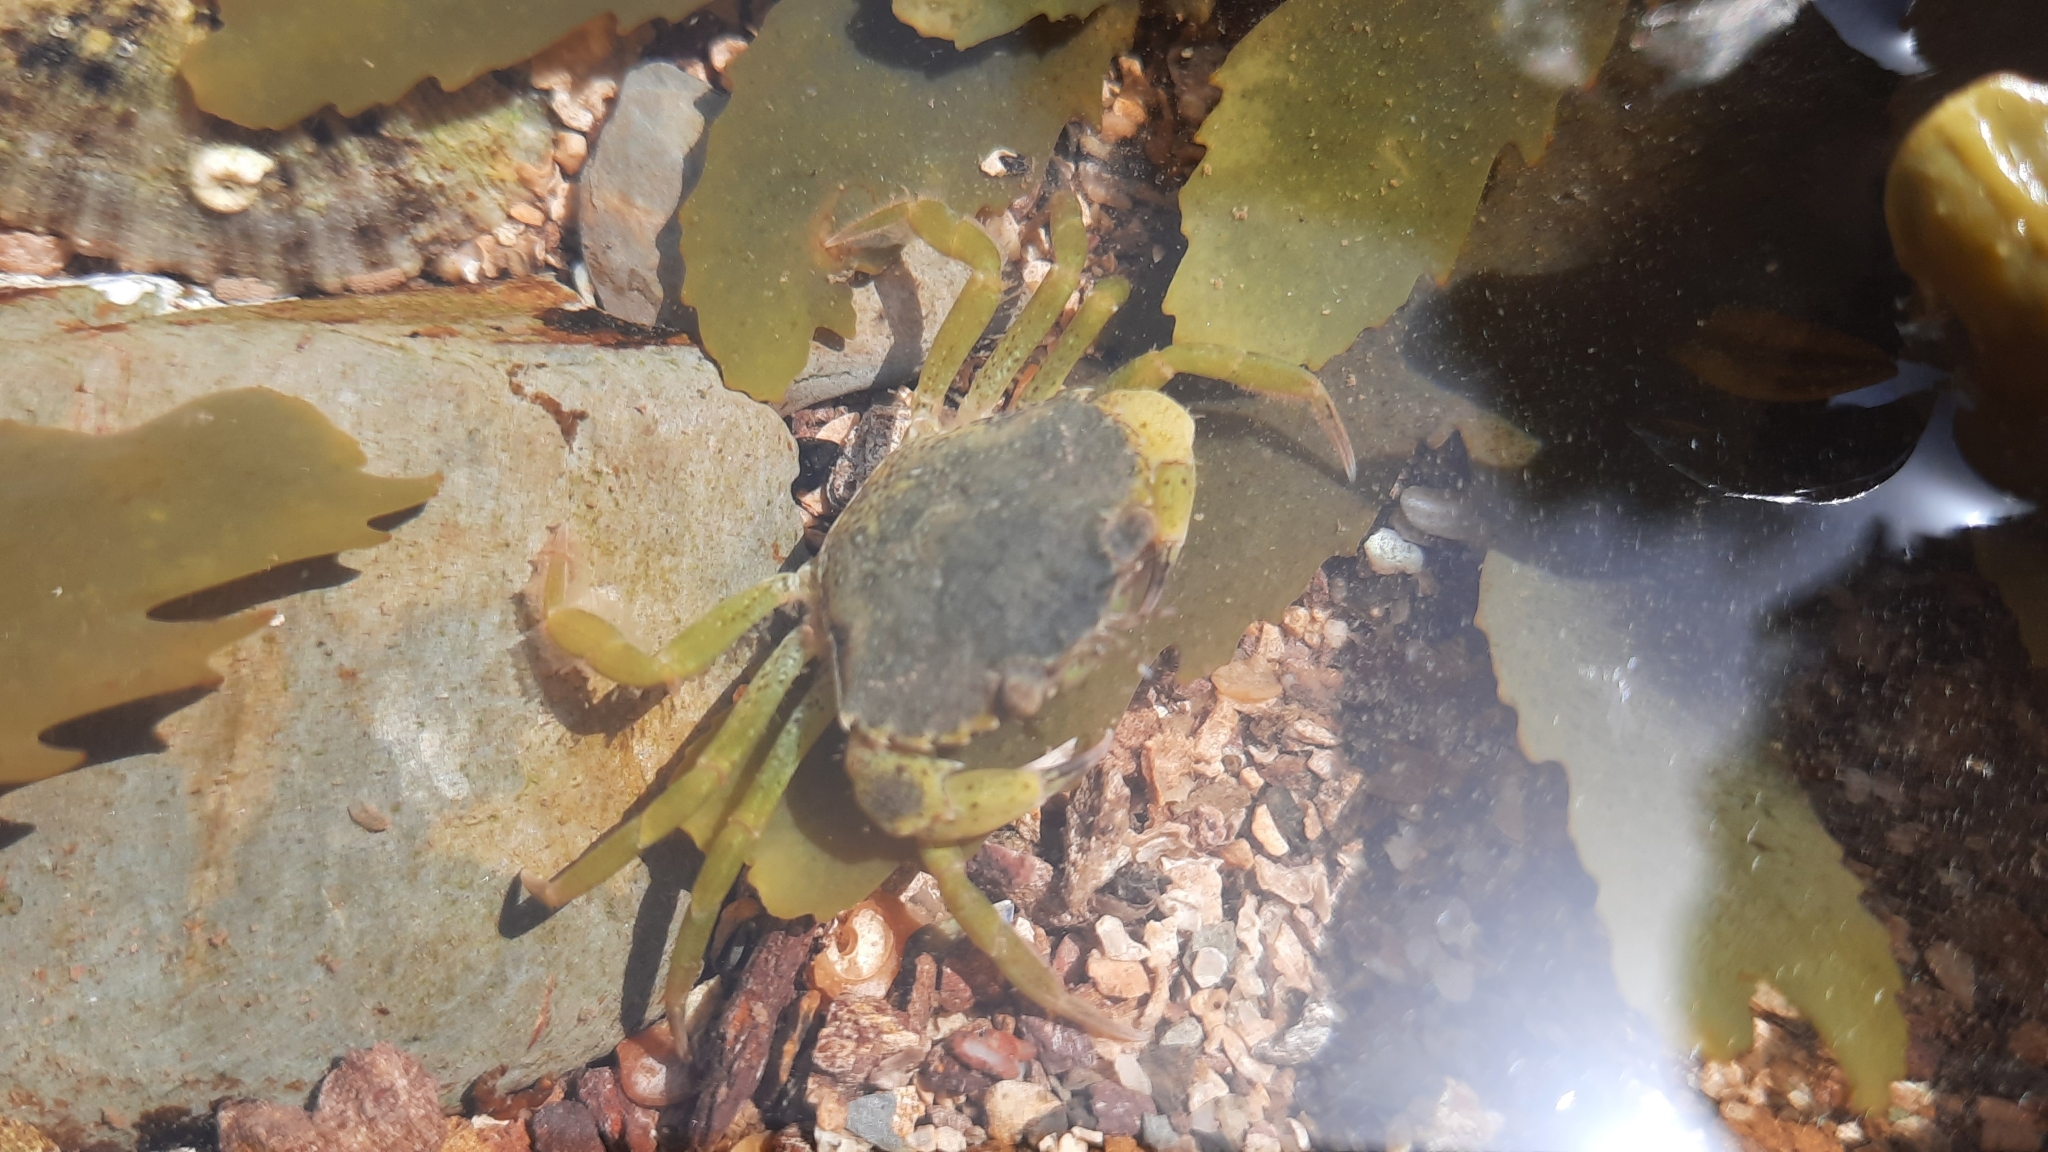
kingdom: Animalia
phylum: Arthropoda
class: Malacostraca
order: Decapoda
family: Carcinidae
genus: Carcinus
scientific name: Carcinus maenas
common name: European green crab
